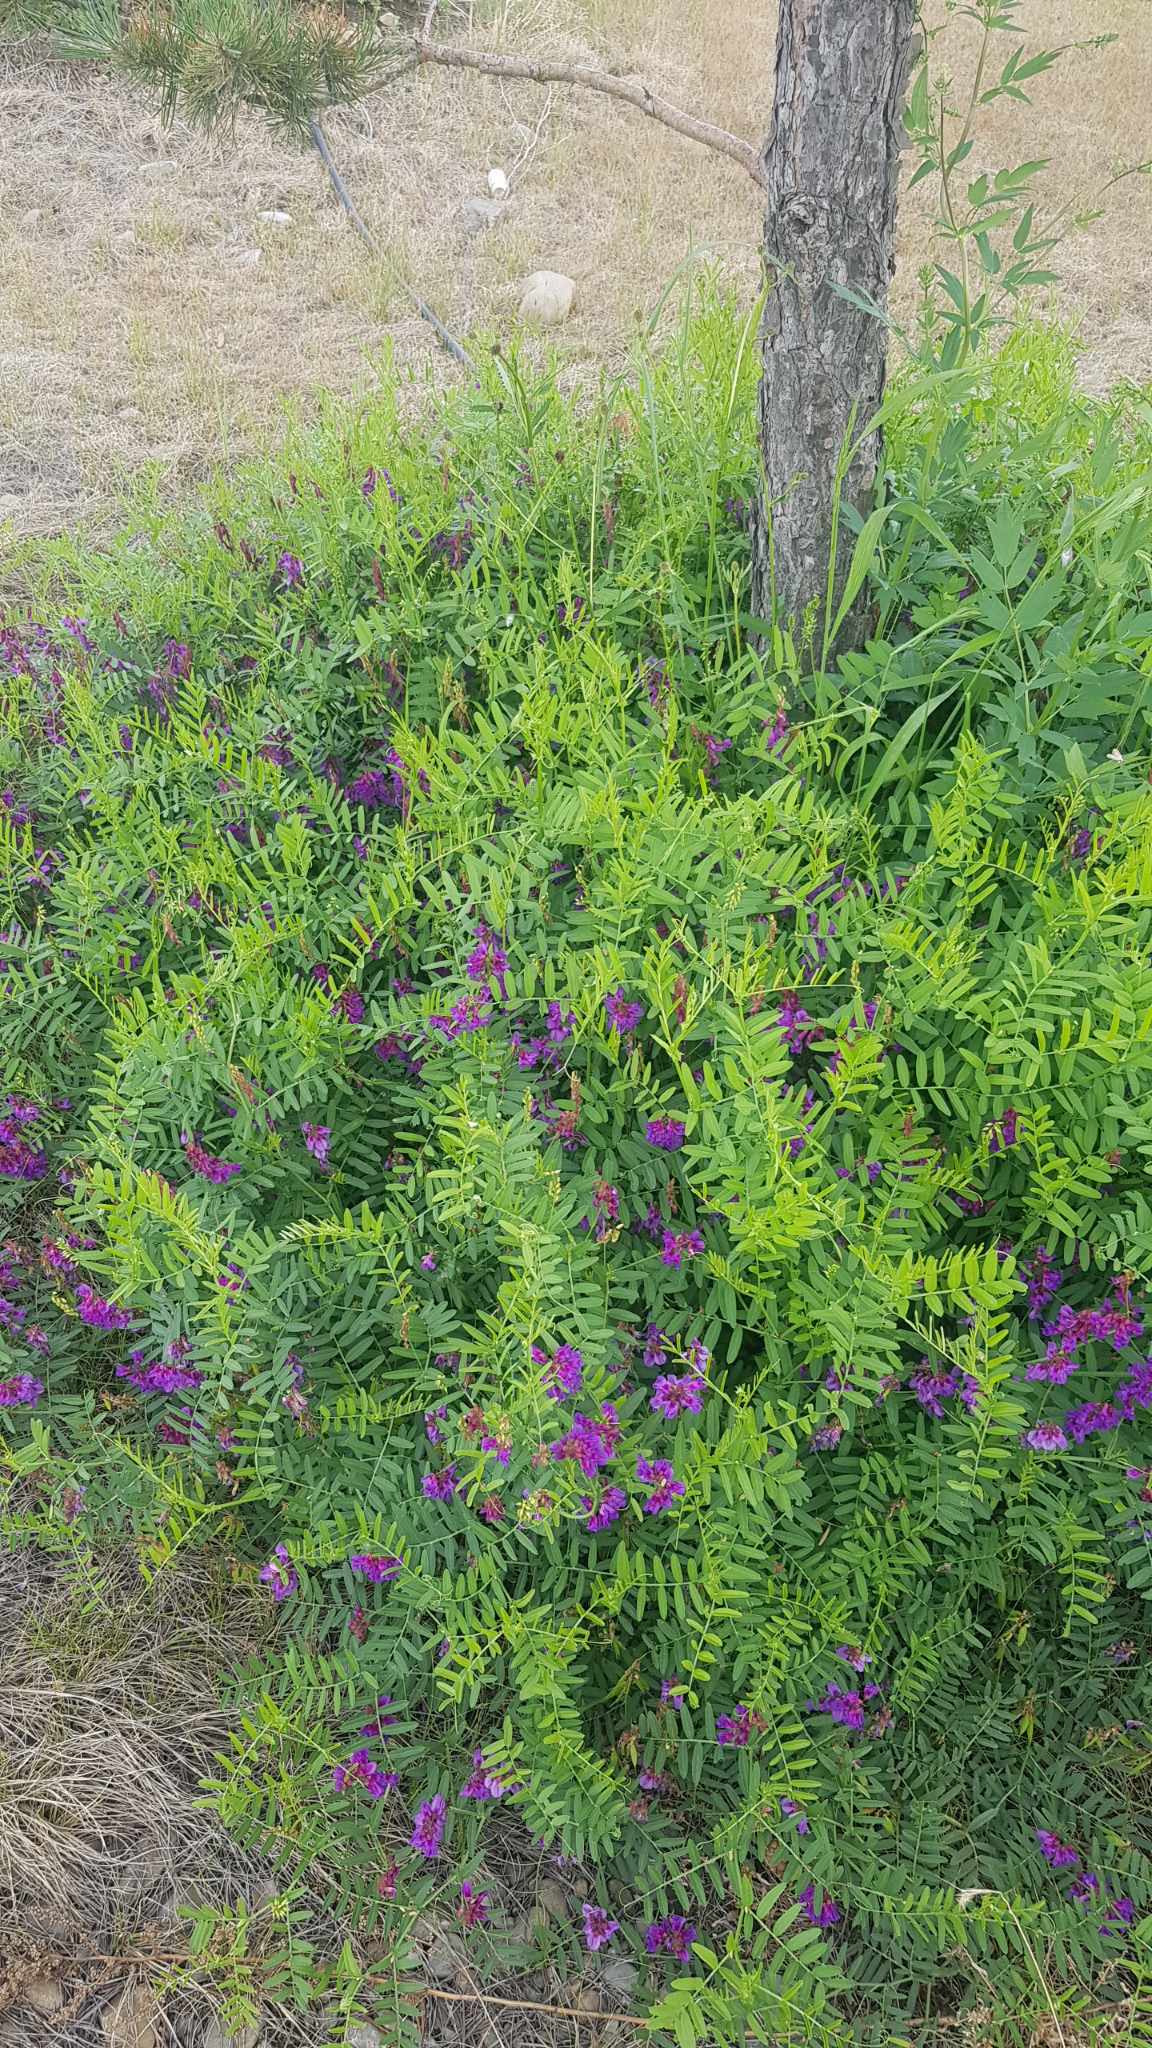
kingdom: Plantae
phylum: Tracheophyta
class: Magnoliopsida
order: Fabales
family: Fabaceae
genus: Vicia
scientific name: Vicia amoena
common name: Cheder ebs
